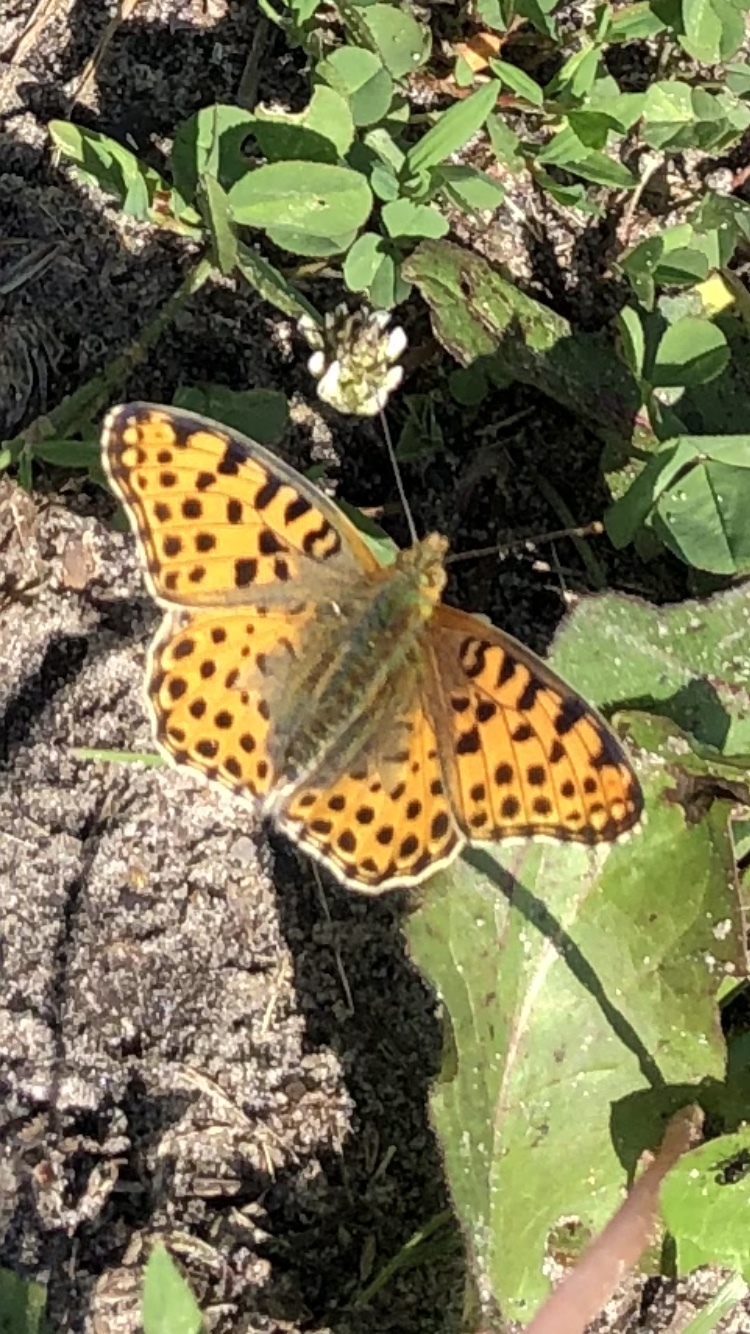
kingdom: Animalia
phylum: Arthropoda
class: Insecta
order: Lepidoptera
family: Nymphalidae
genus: Issoria
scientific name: Issoria lathonia
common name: Queen of spain fritillary
